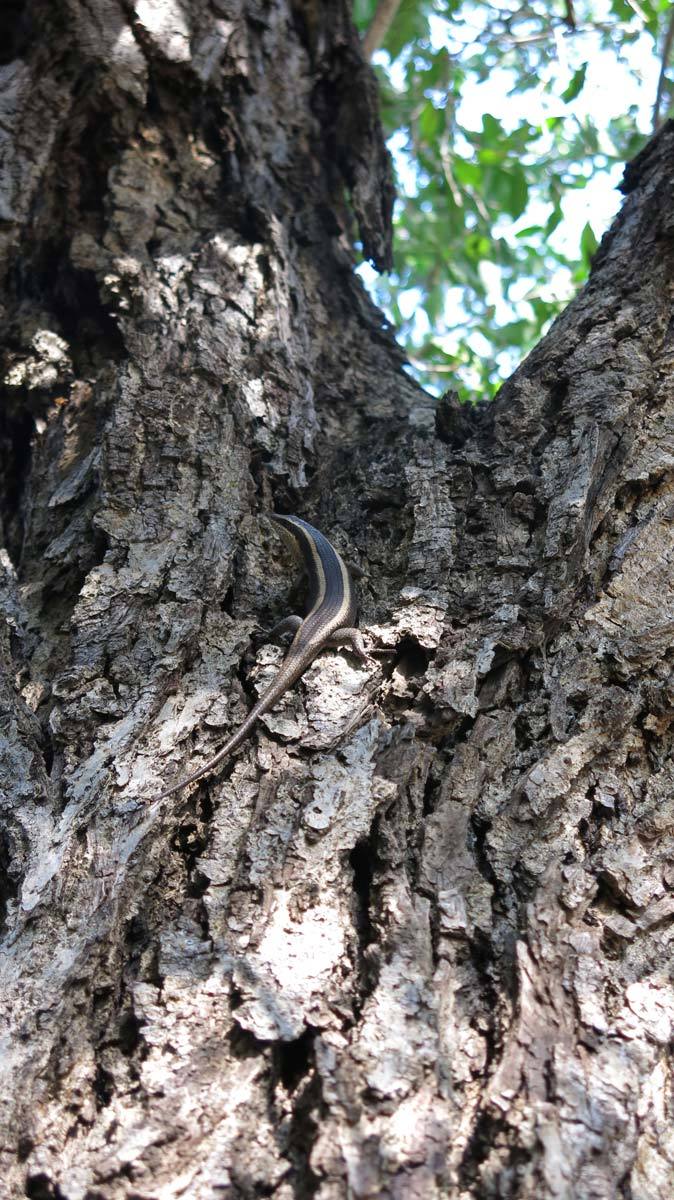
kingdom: Animalia
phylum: Chordata
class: Squamata
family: Scincidae
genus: Trachylepis
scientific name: Trachylepis striata
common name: African striped mabuya
